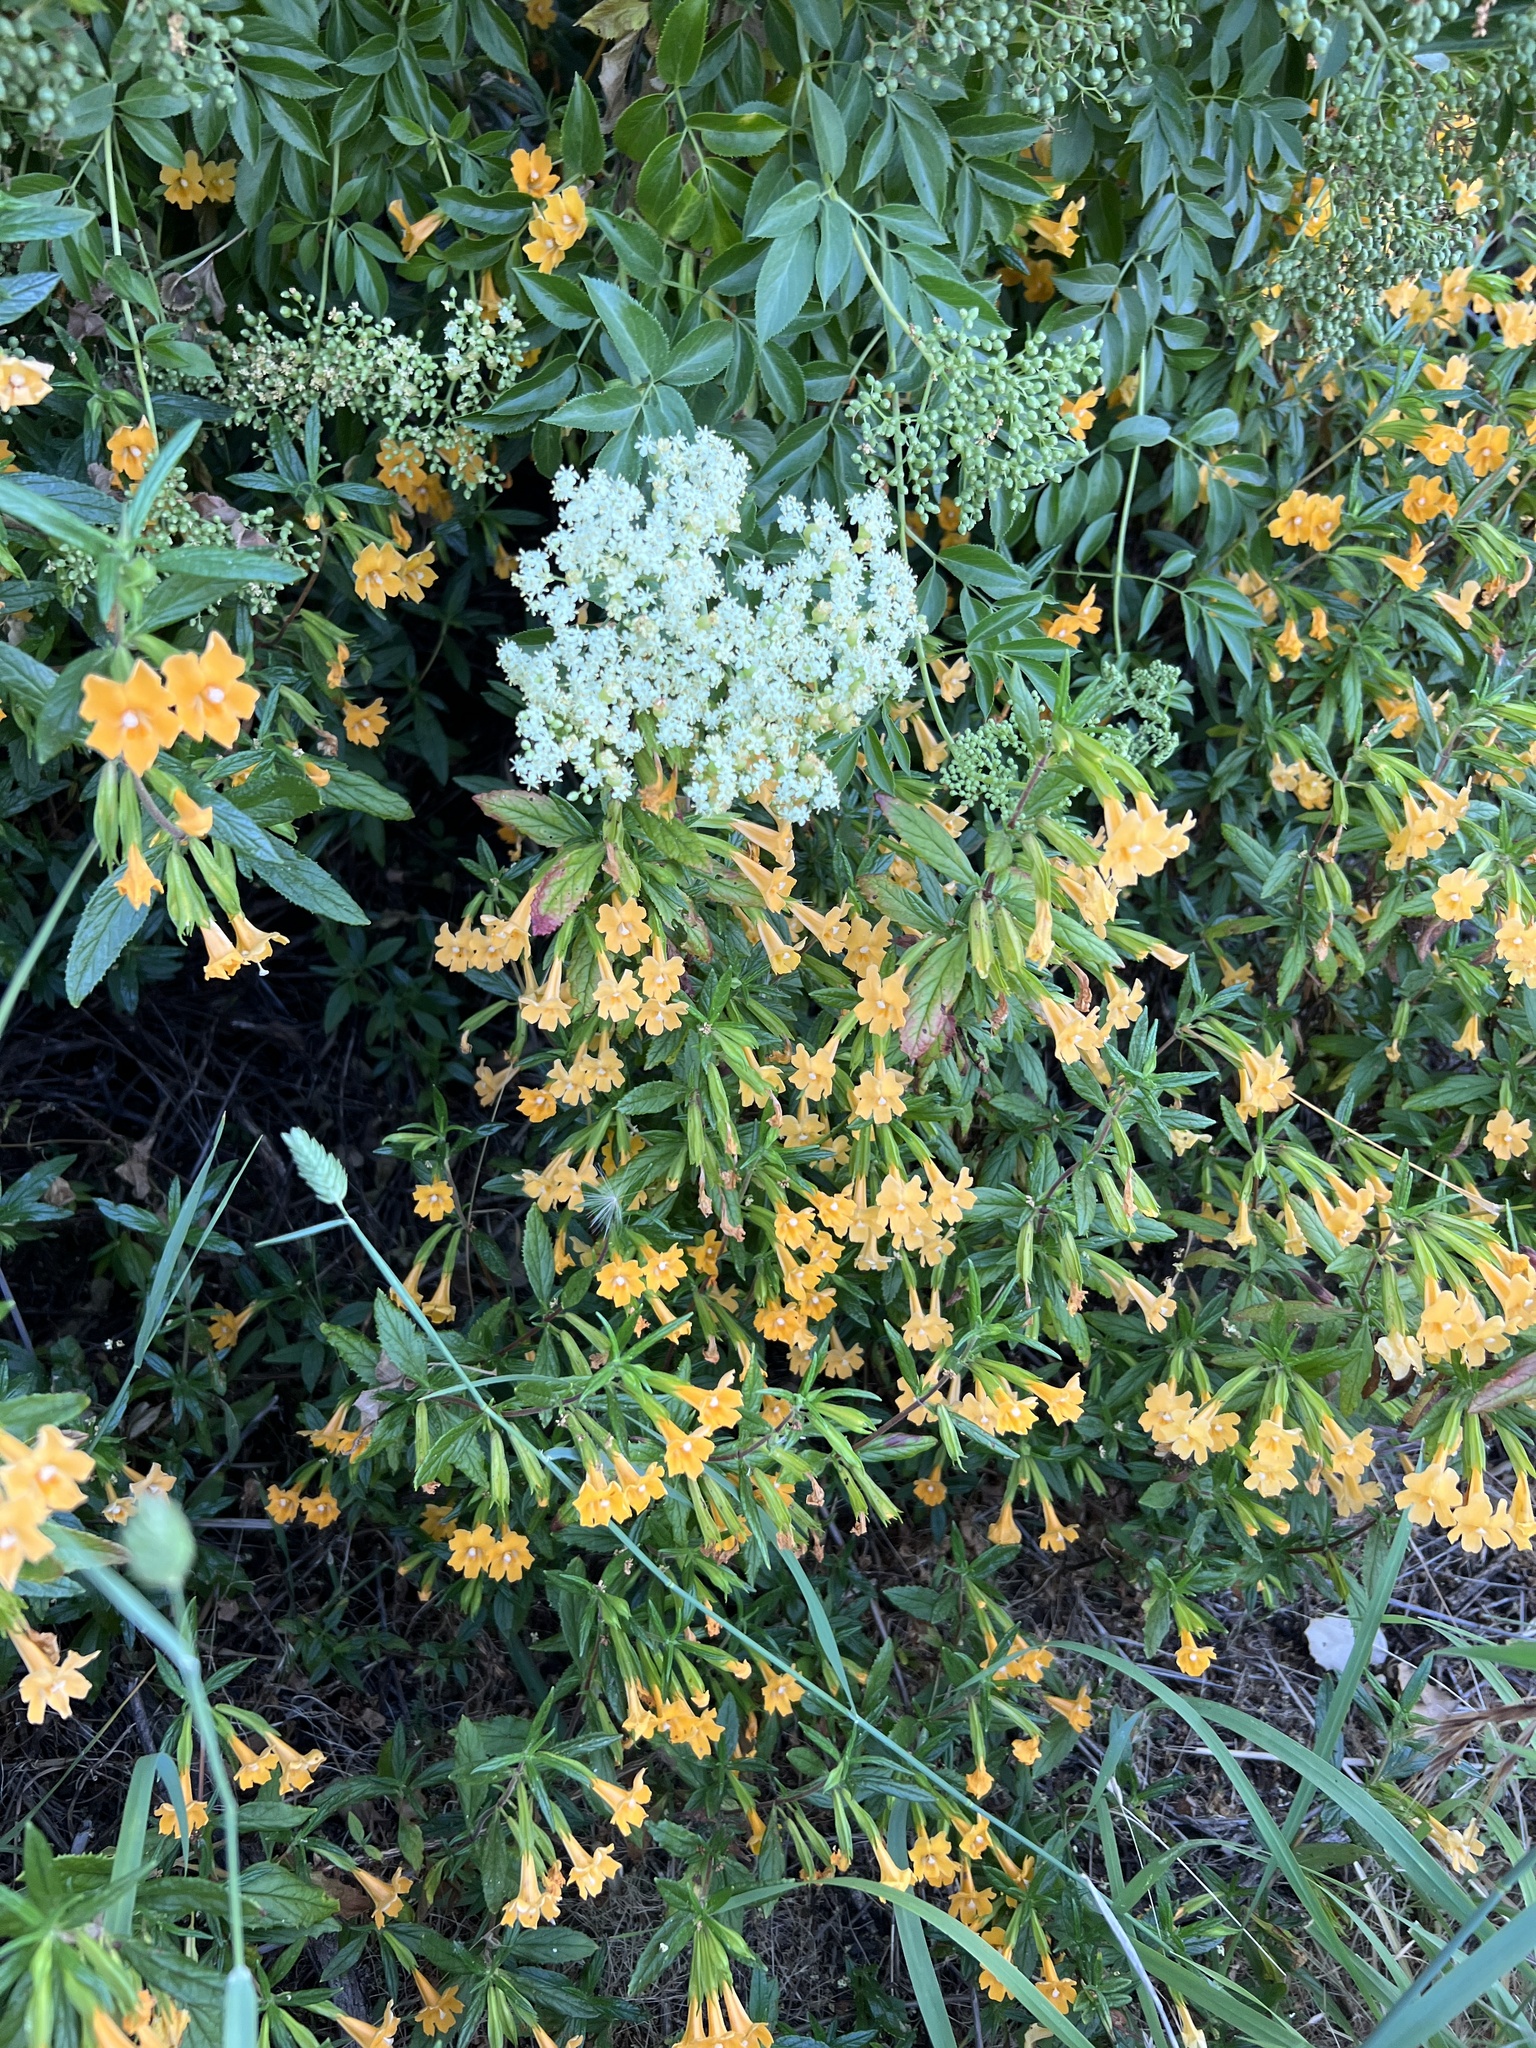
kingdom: Plantae
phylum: Tracheophyta
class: Magnoliopsida
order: Lamiales
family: Phrymaceae
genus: Diplacus
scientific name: Diplacus aurantiacus
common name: Bush monkey-flower
